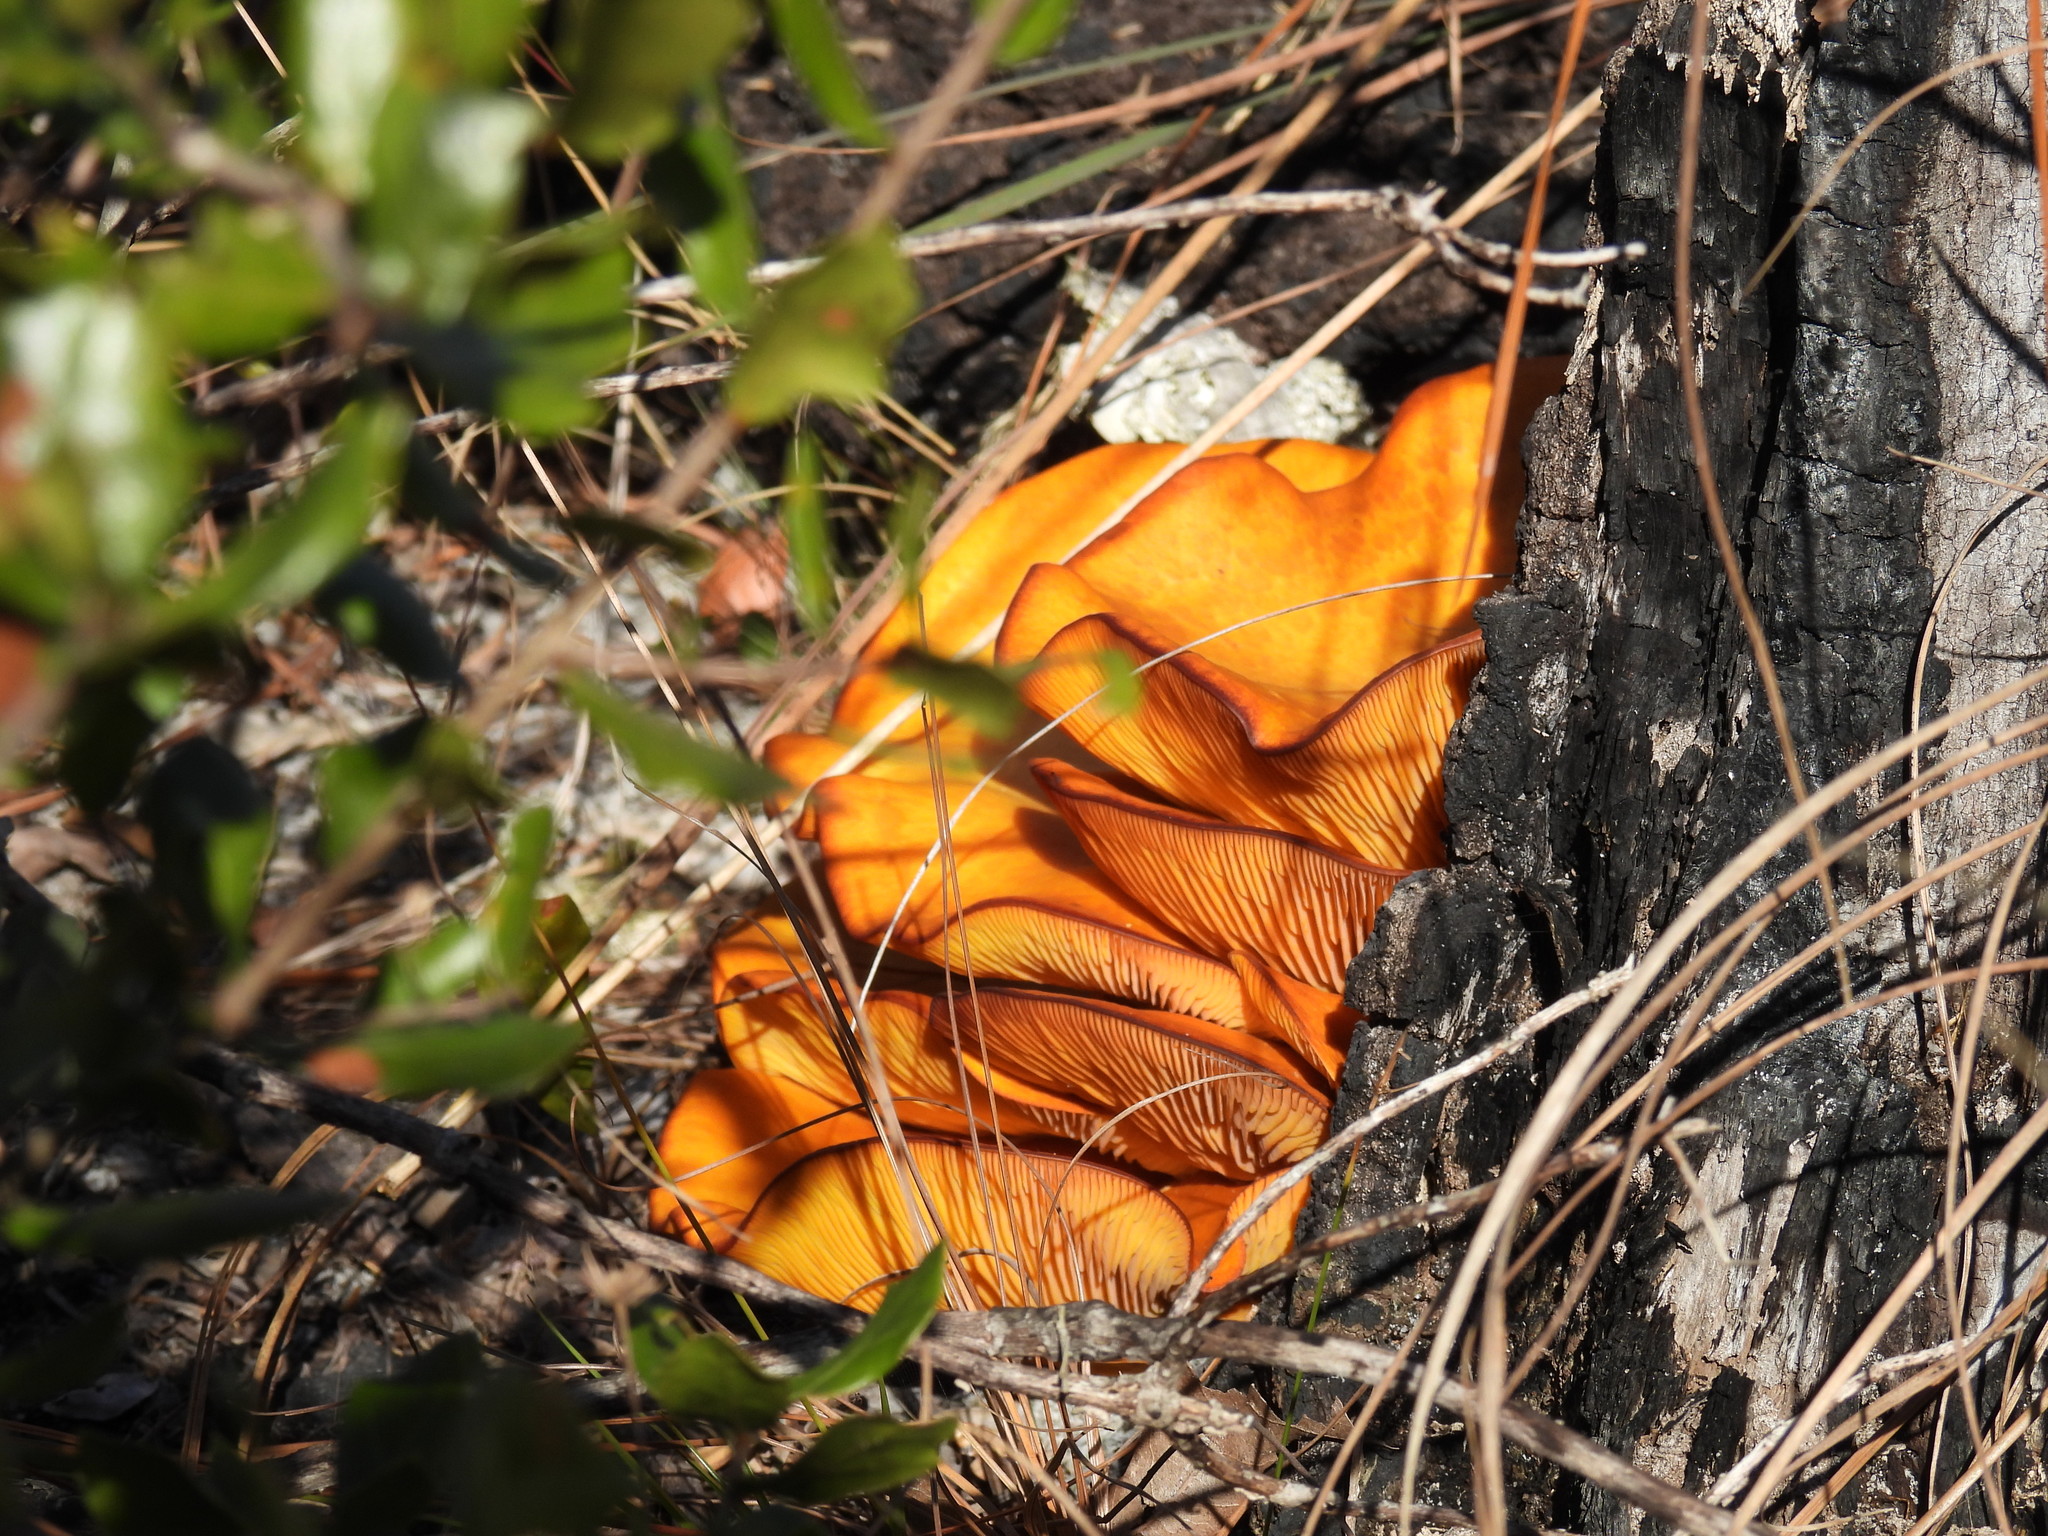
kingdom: Fungi
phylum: Basidiomycota
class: Agaricomycetes
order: Agaricales
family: Omphalotaceae
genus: Omphalotus
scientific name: Omphalotus subilludens
